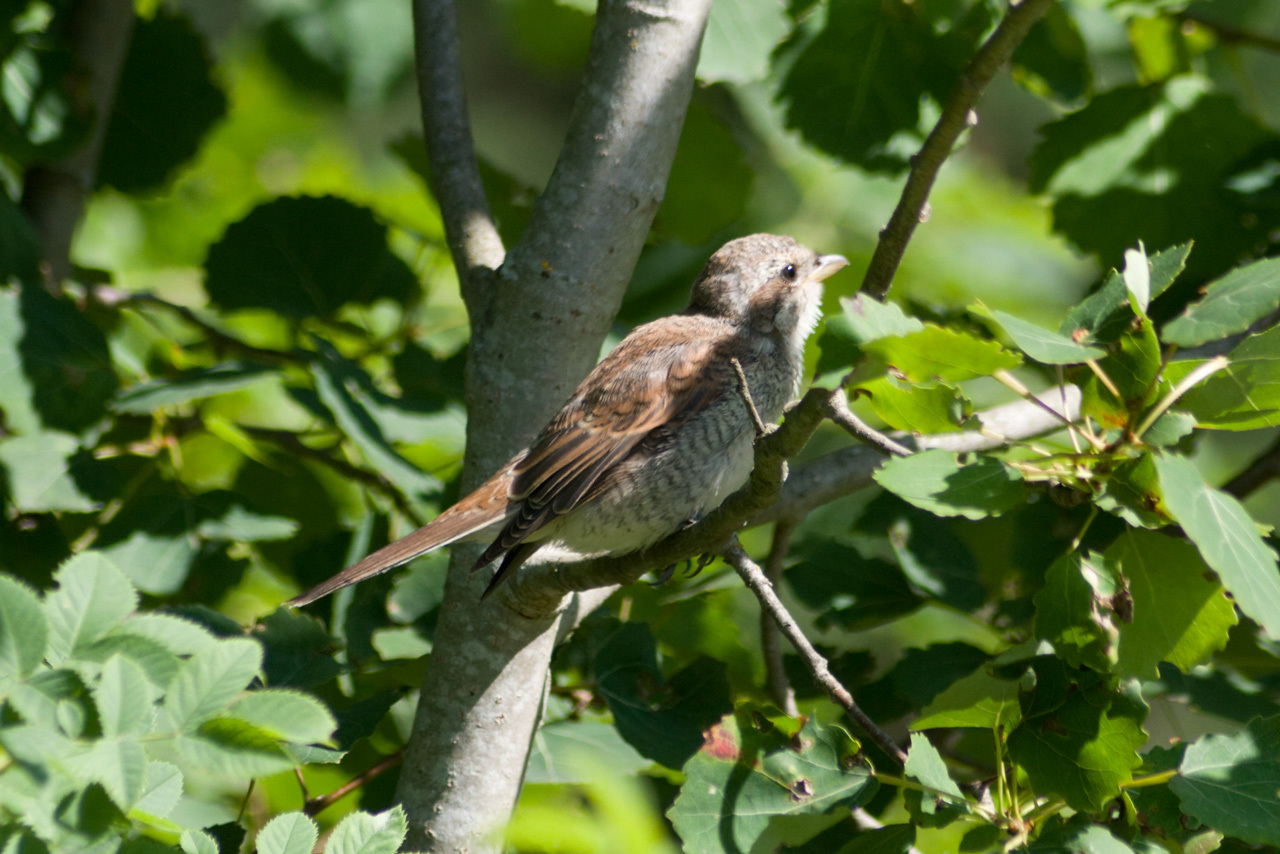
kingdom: Animalia
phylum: Chordata
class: Aves
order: Passeriformes
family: Laniidae
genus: Lanius
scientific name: Lanius collurio
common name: Red-backed shrike
